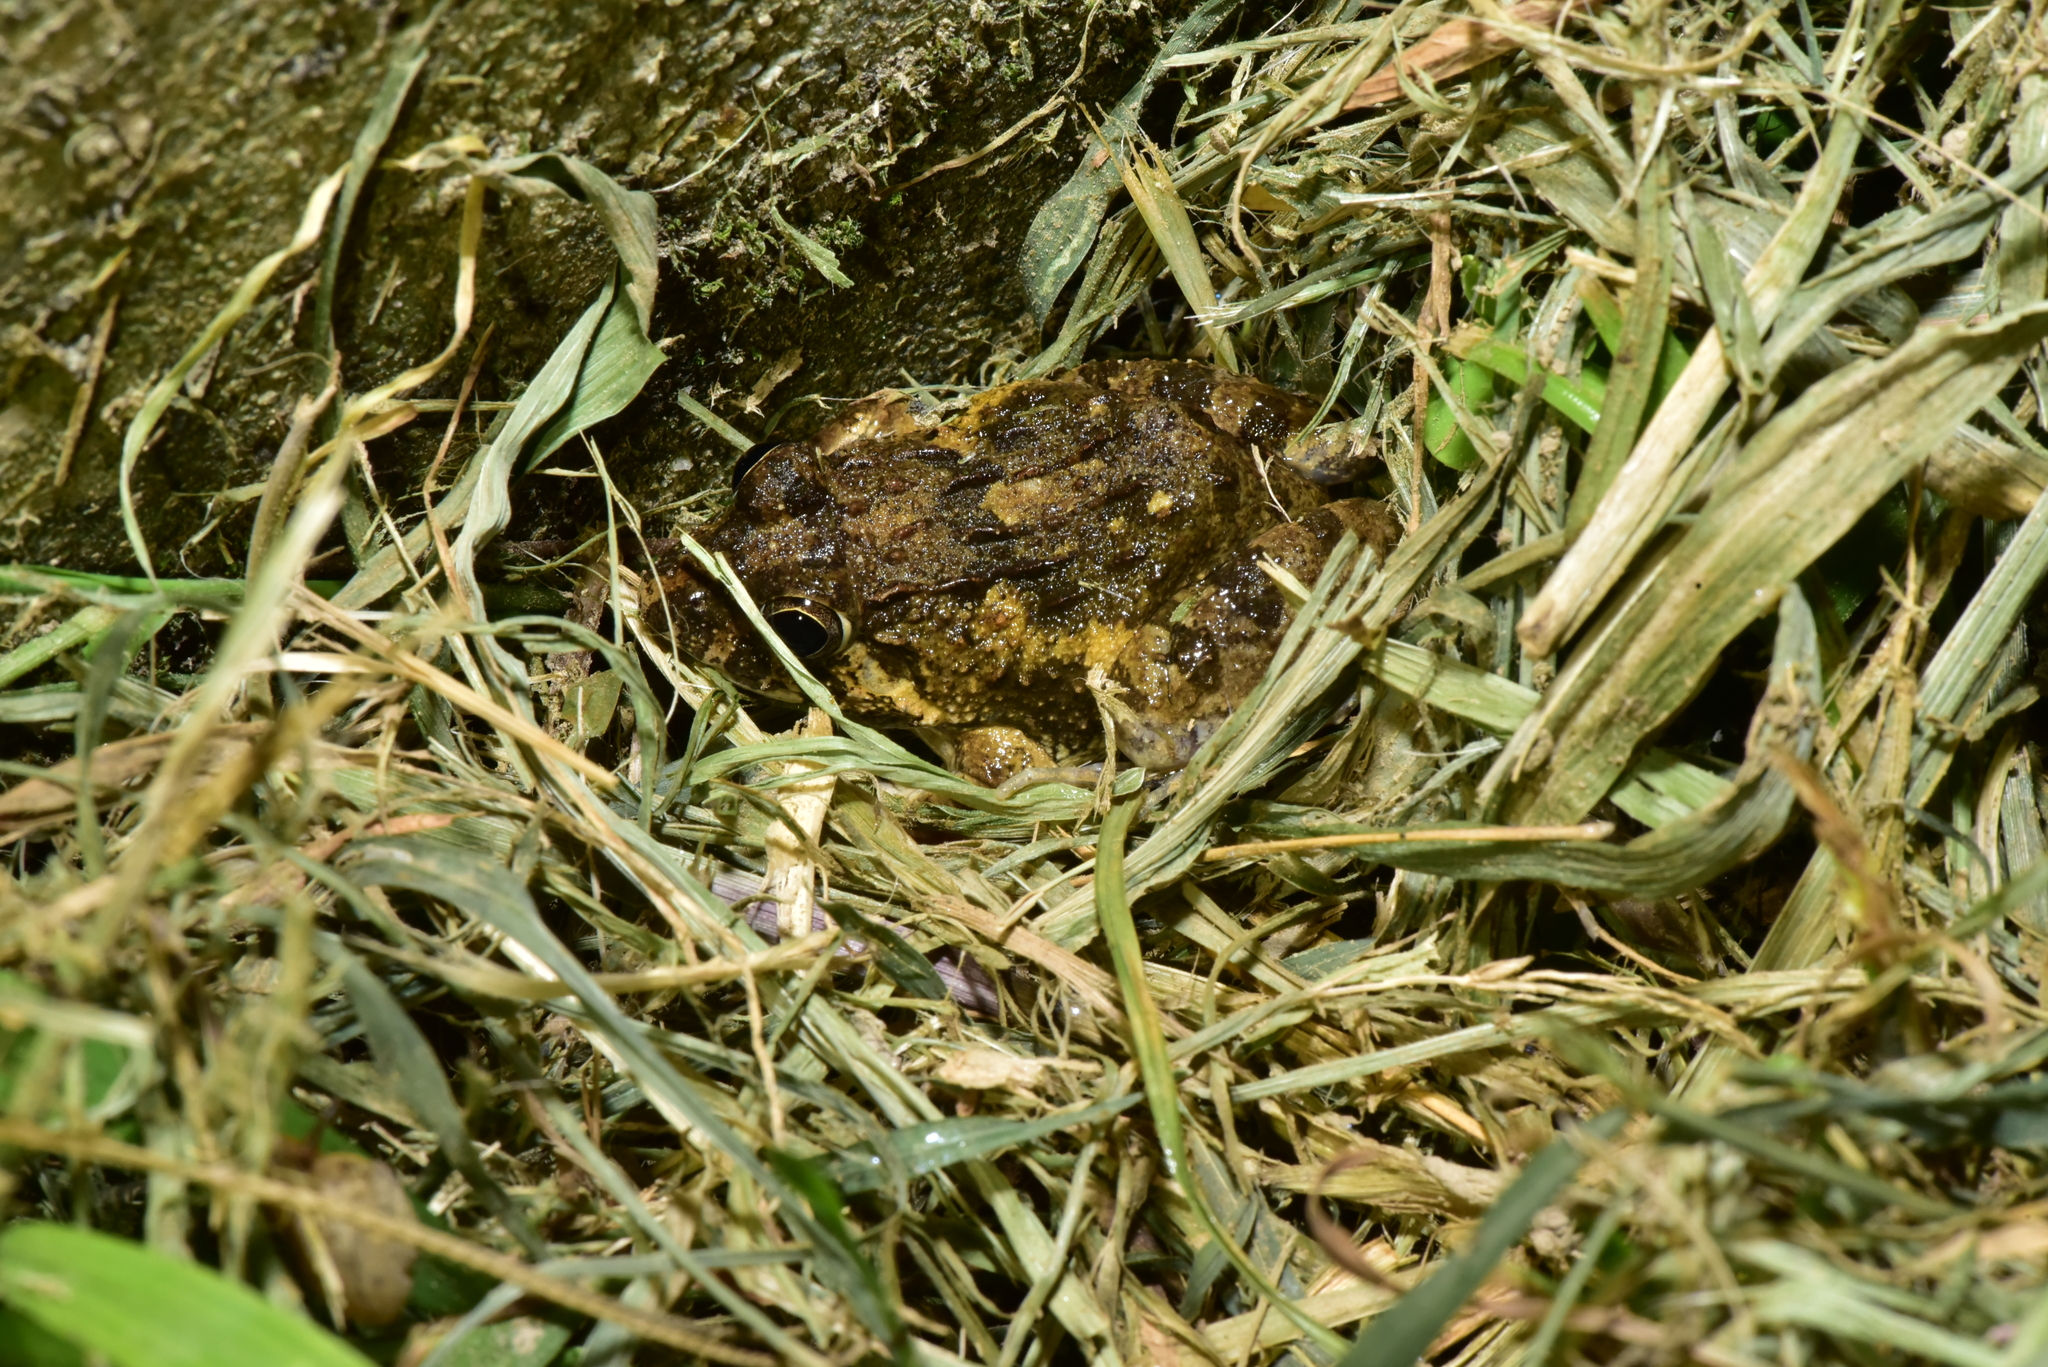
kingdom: Animalia
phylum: Chordata
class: Amphibia
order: Anura
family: Dicroglossidae
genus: Fejervarya
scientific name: Fejervarya limnocharis
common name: Asian grass frog/common pond frog/field frog/grass frog/indian rice frog
